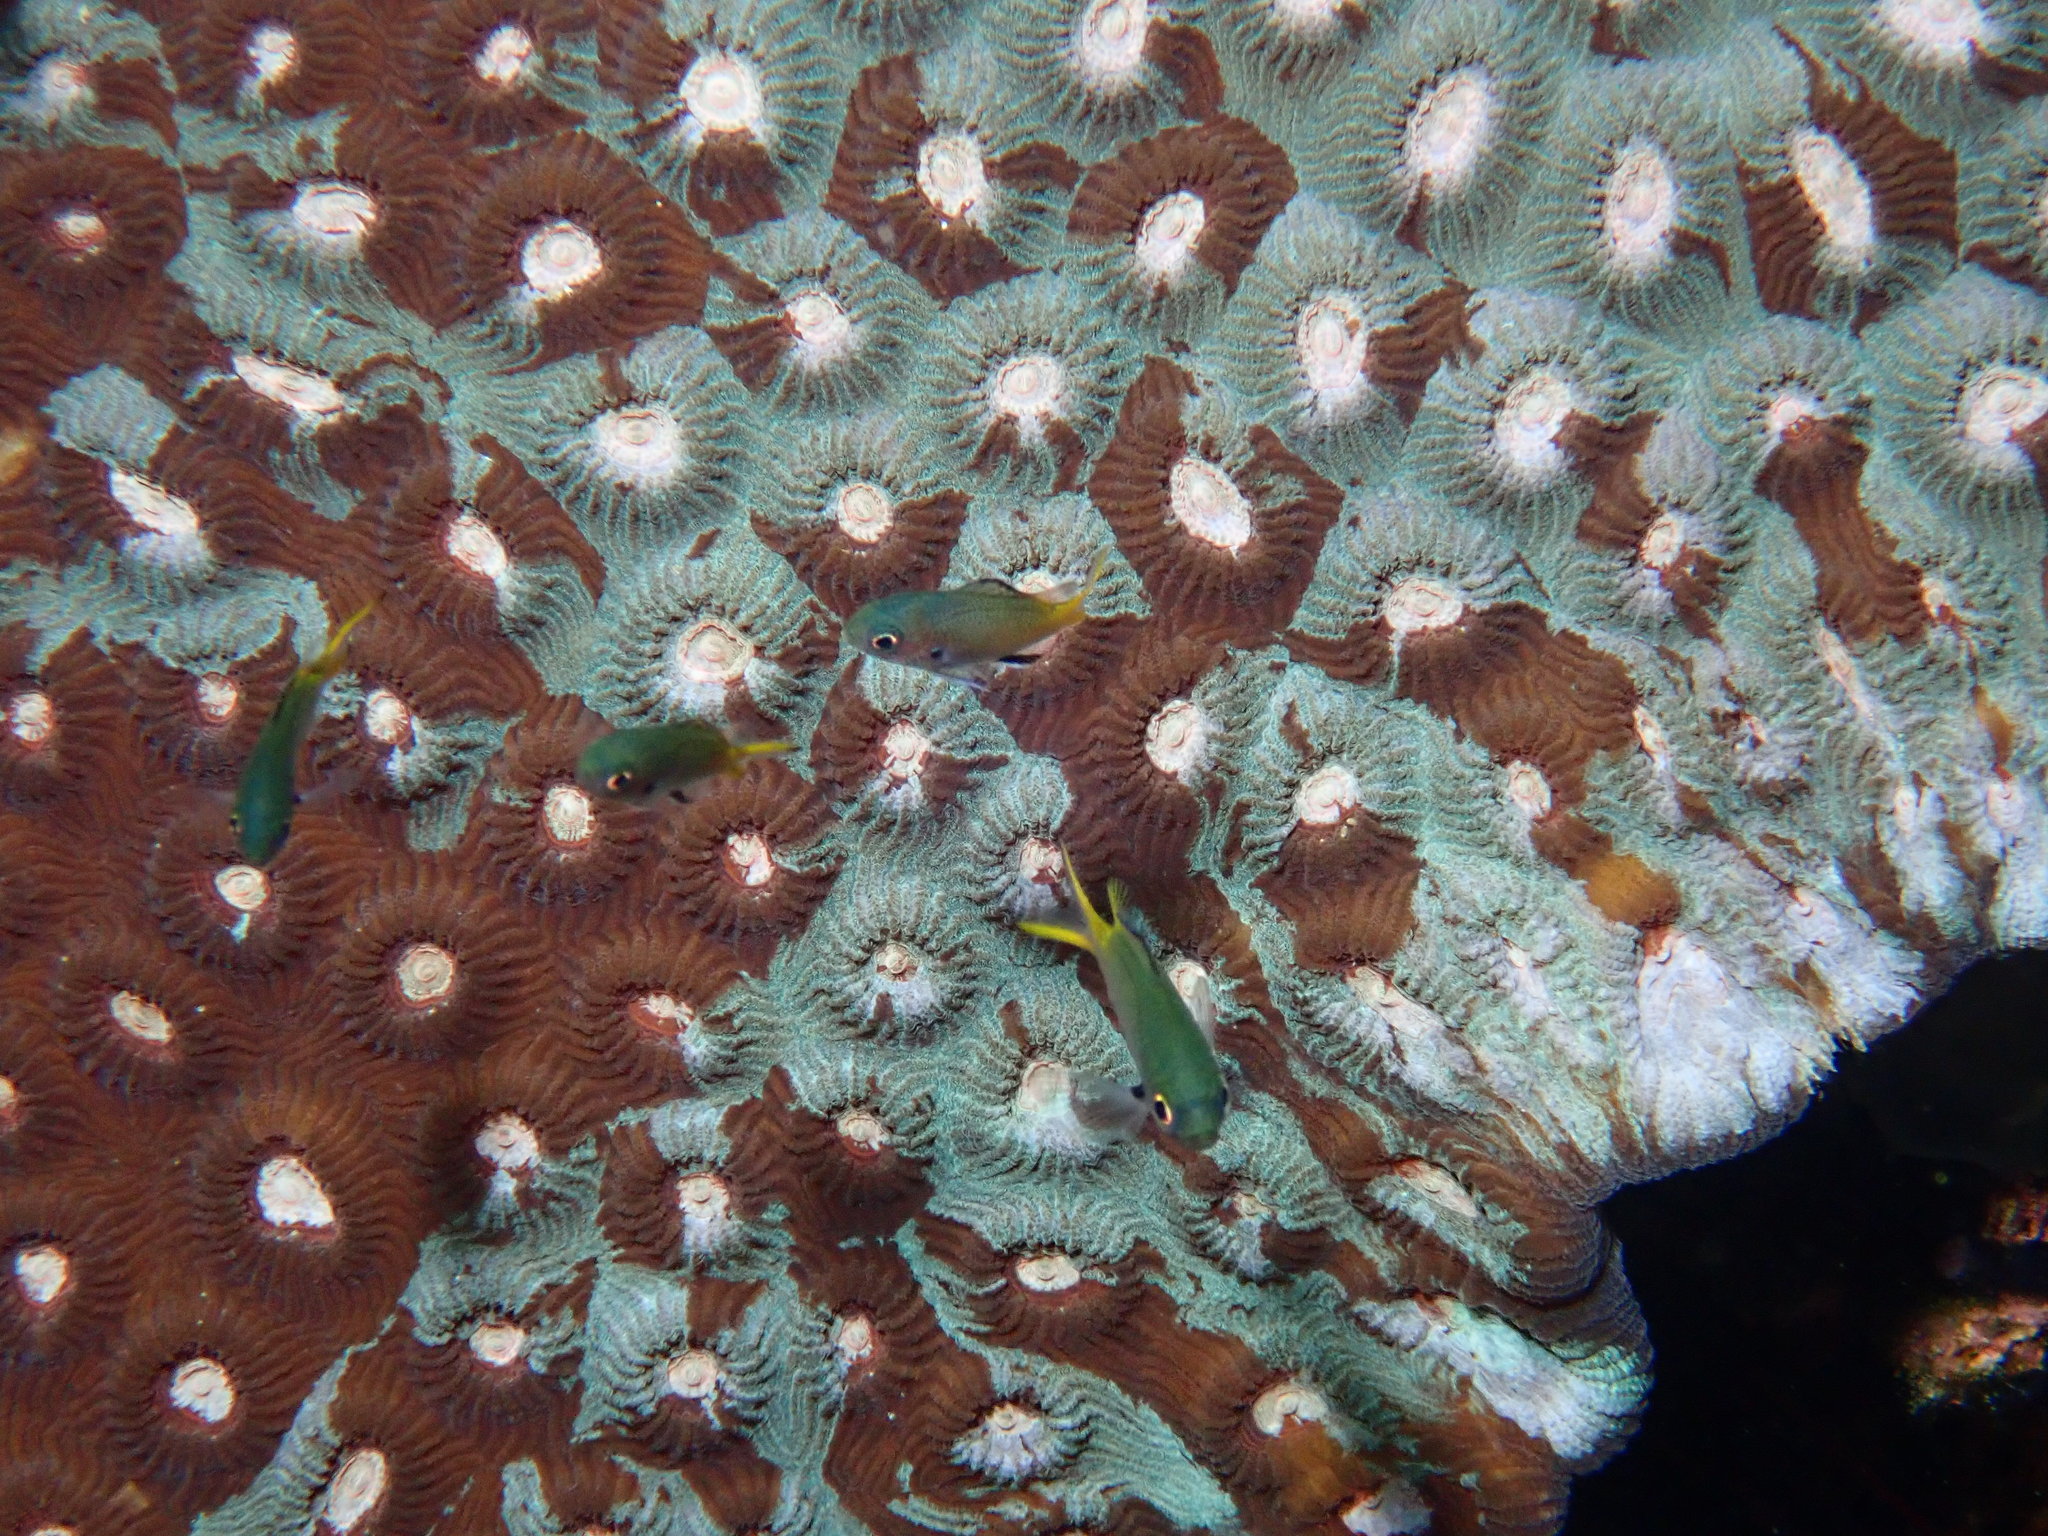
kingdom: Animalia
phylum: Chordata
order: Perciformes
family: Pomacentridae
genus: Chromis
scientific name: Chromis kennensis
